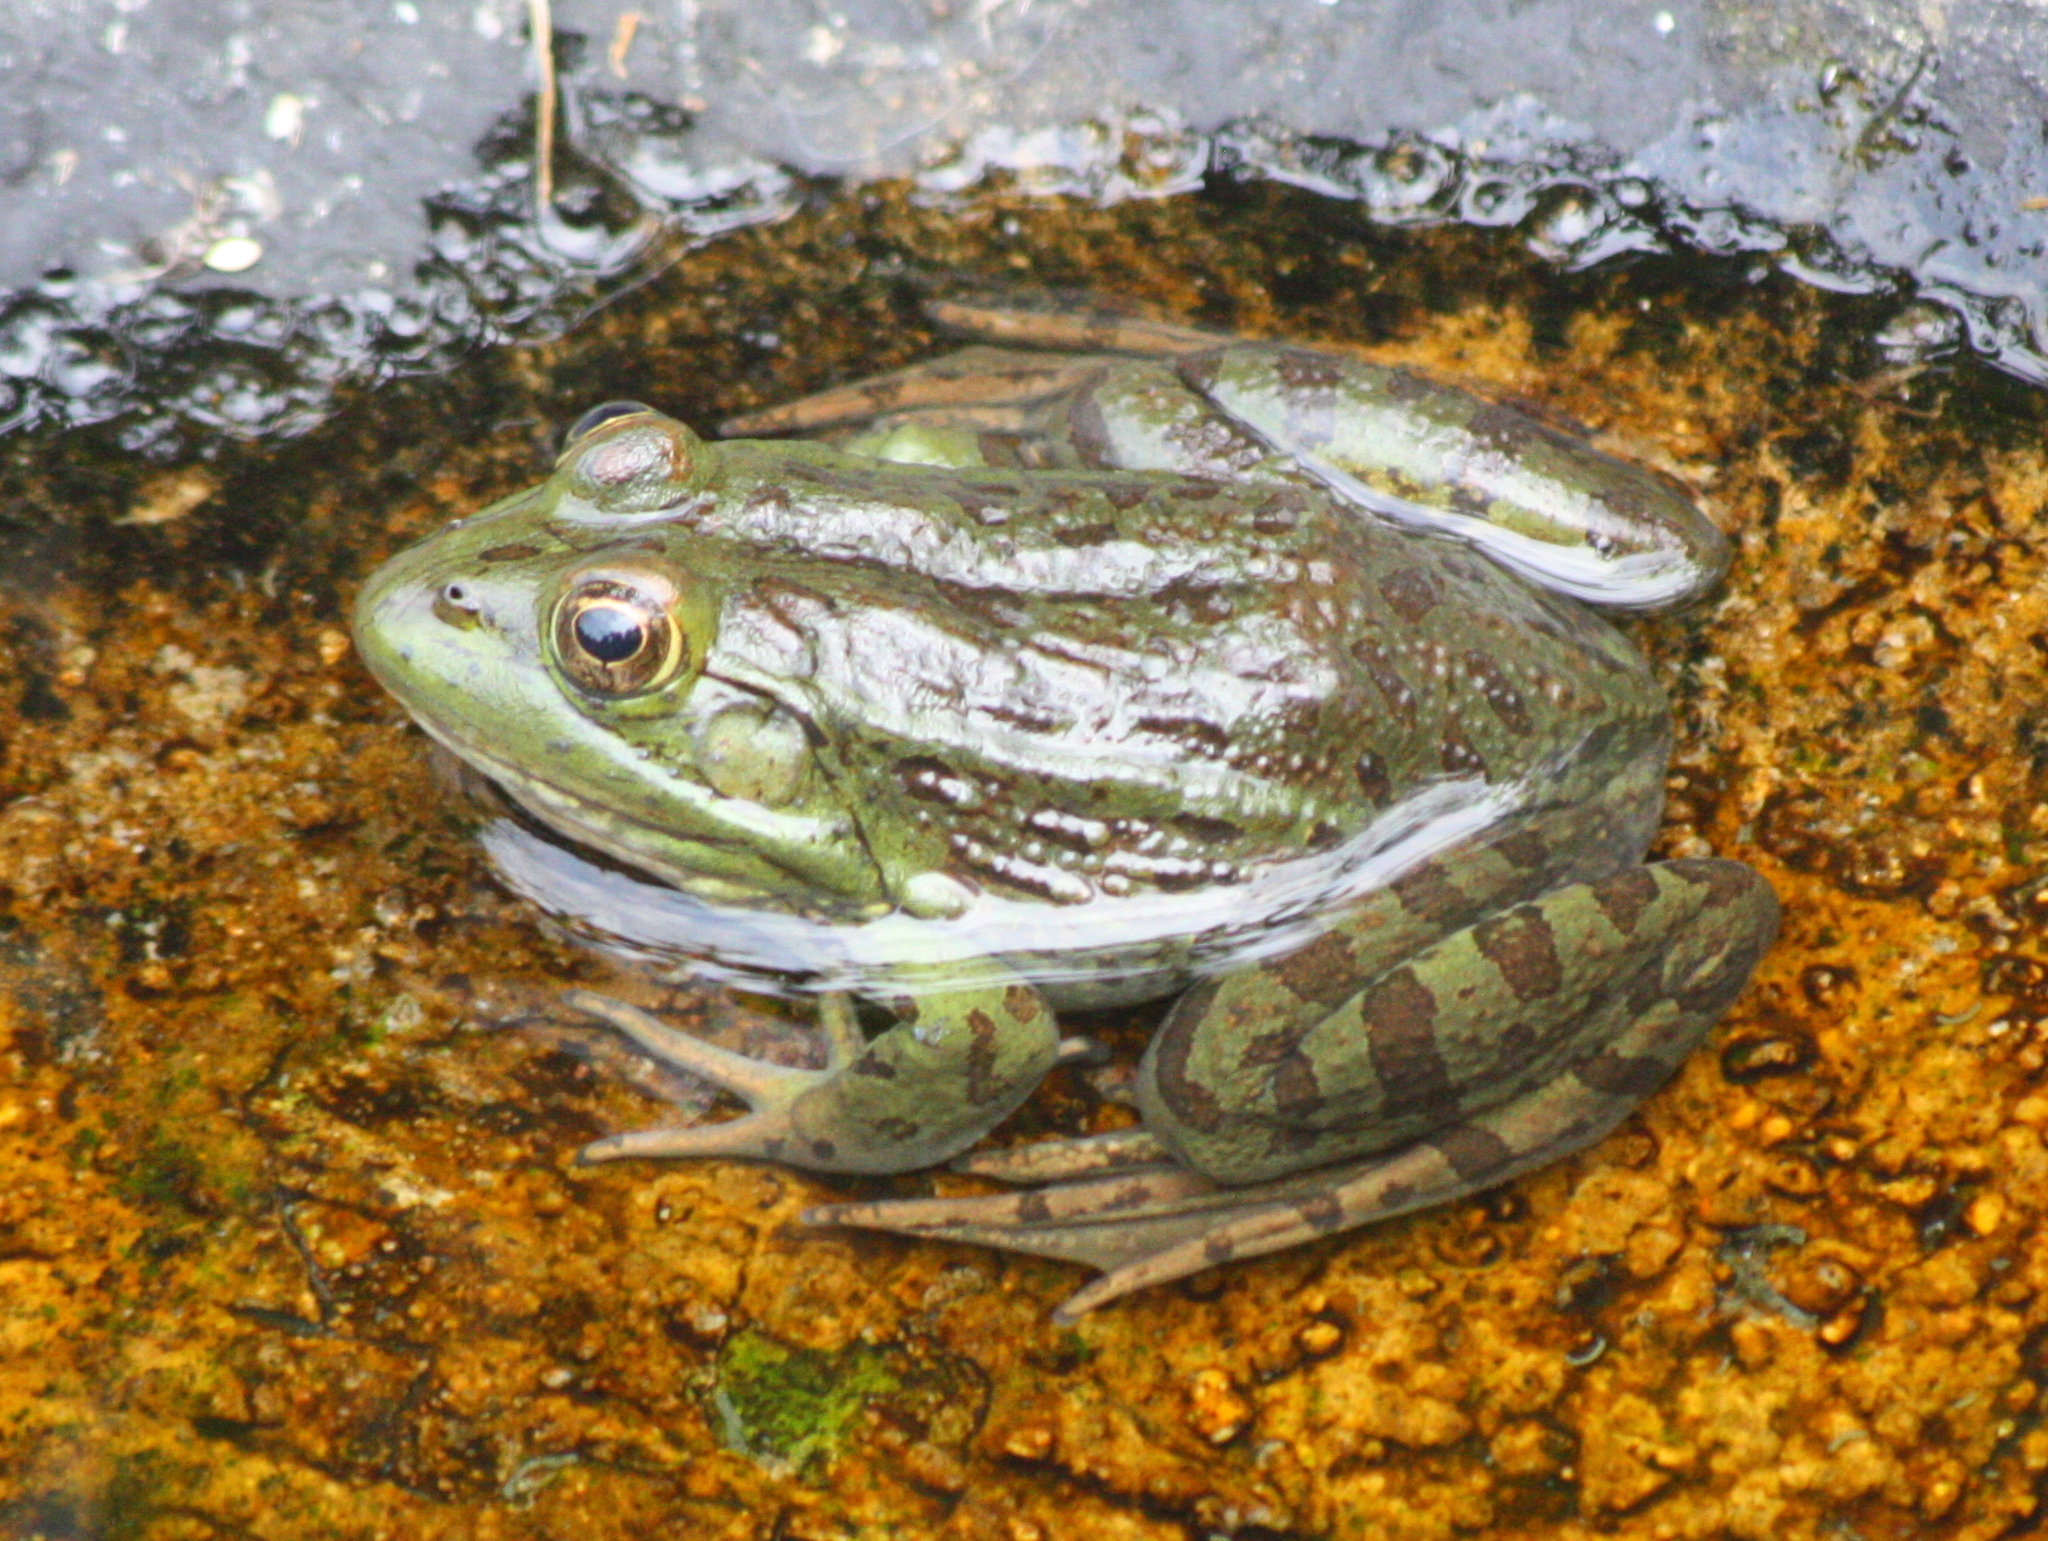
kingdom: Animalia
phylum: Chordata
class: Amphibia
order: Anura
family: Ranidae
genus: Lithobates
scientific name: Lithobates montezumae
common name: Montezuma leopard frog
